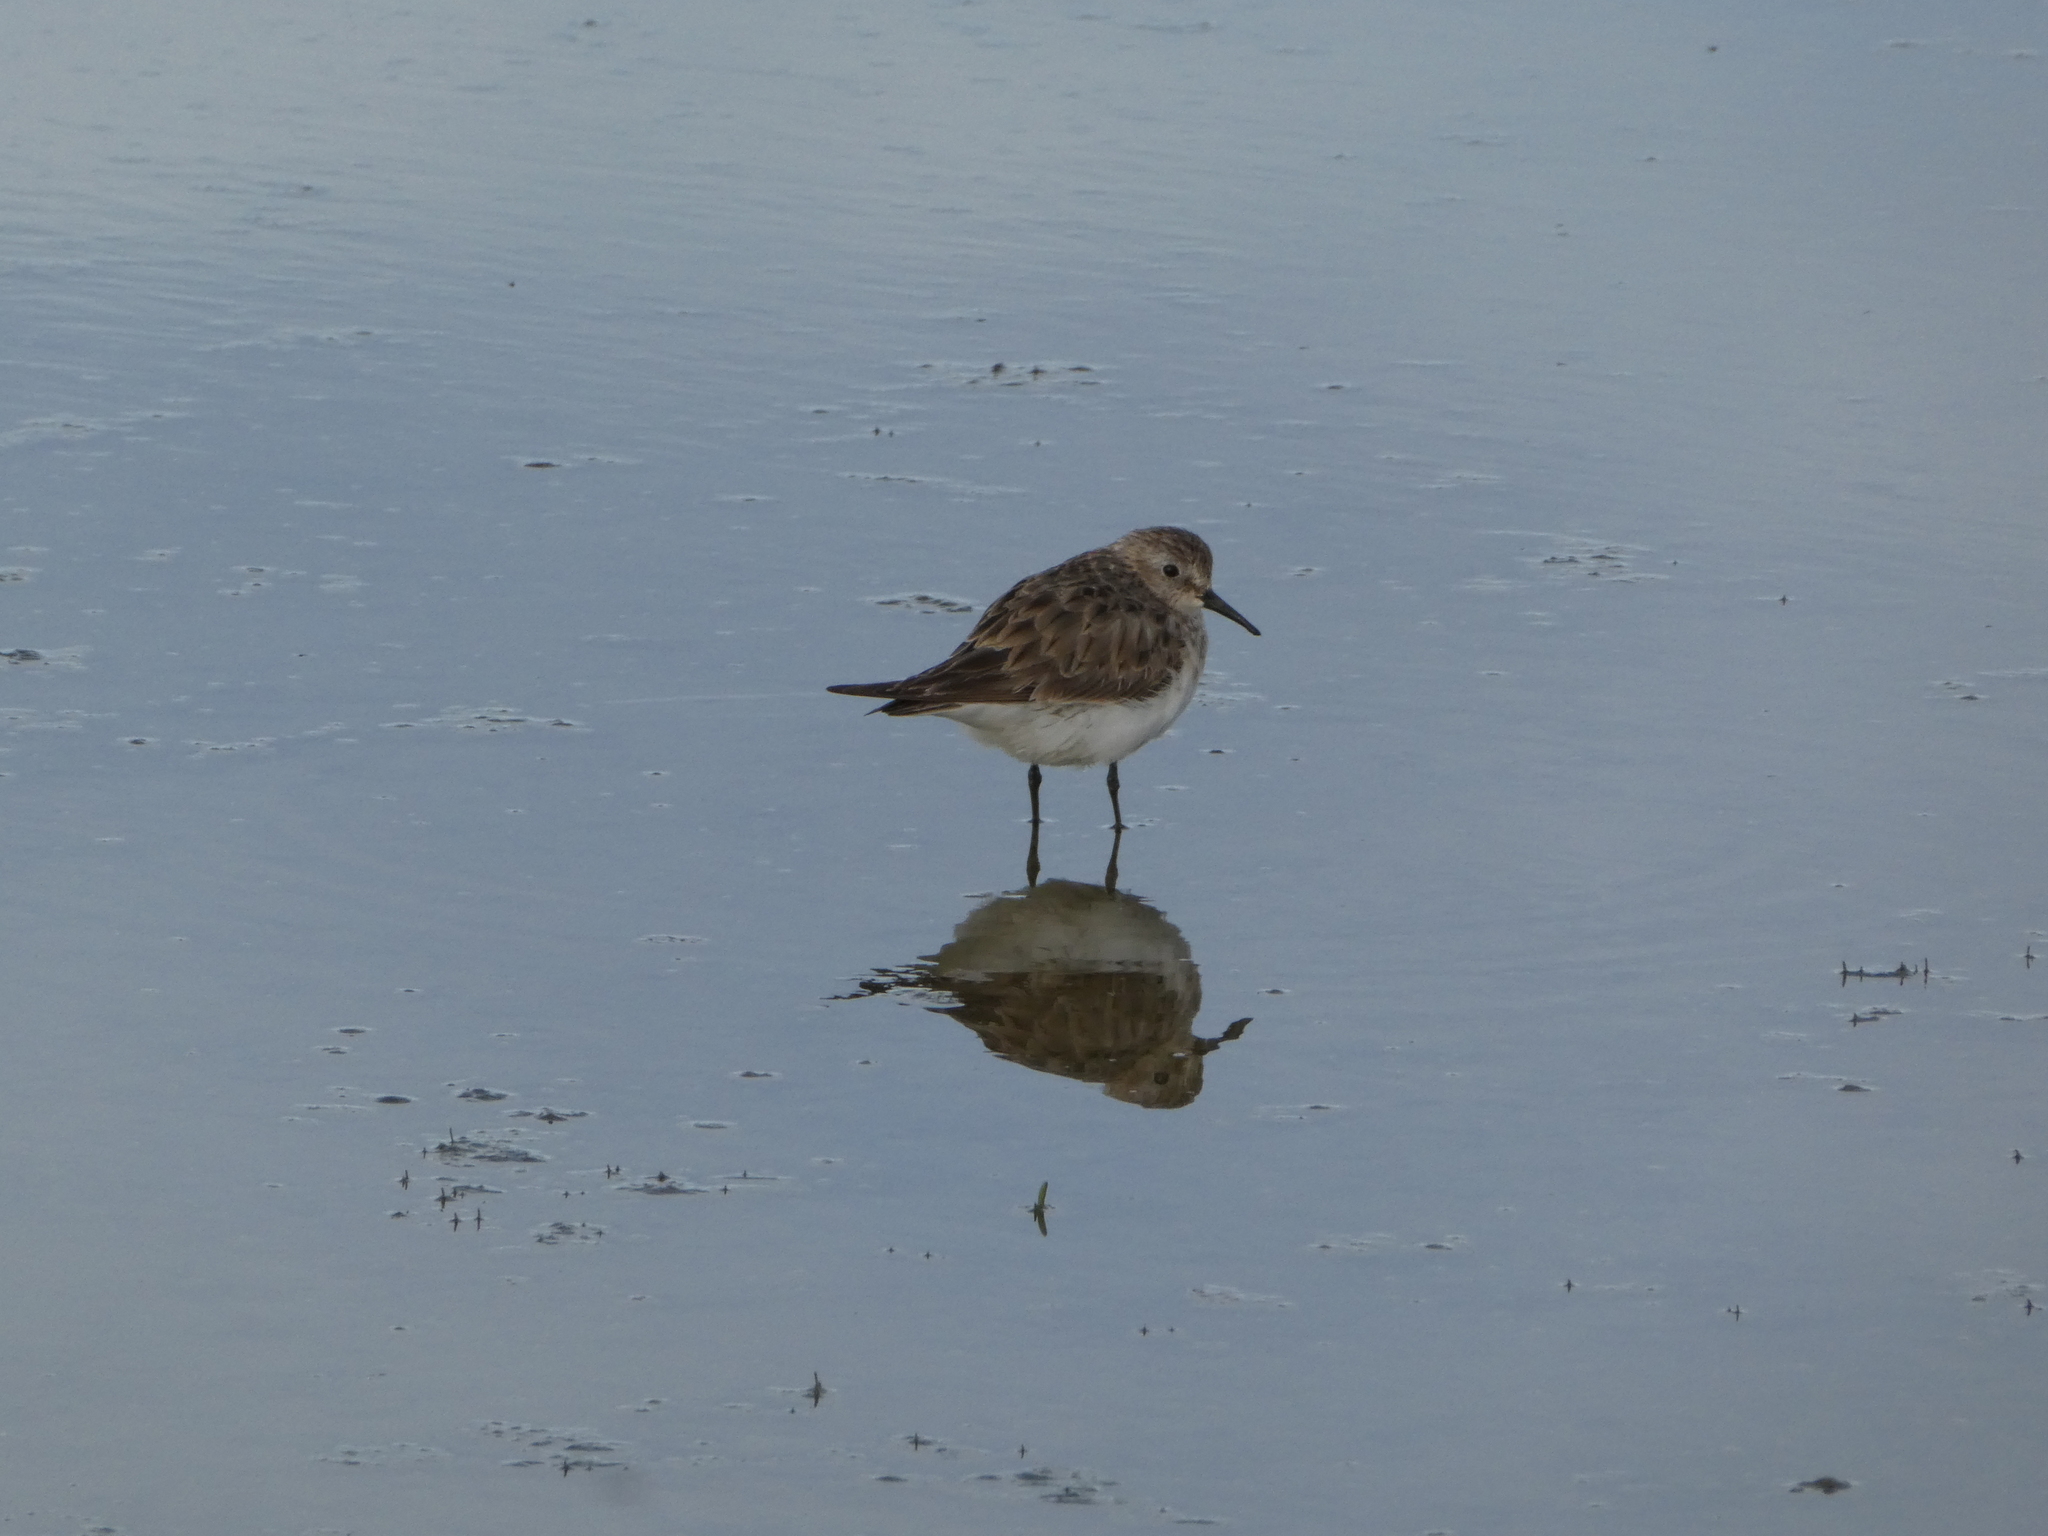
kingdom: Animalia
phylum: Chordata
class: Aves
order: Charadriiformes
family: Scolopacidae
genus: Calidris
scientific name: Calidris bairdii
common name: Baird's sandpiper
